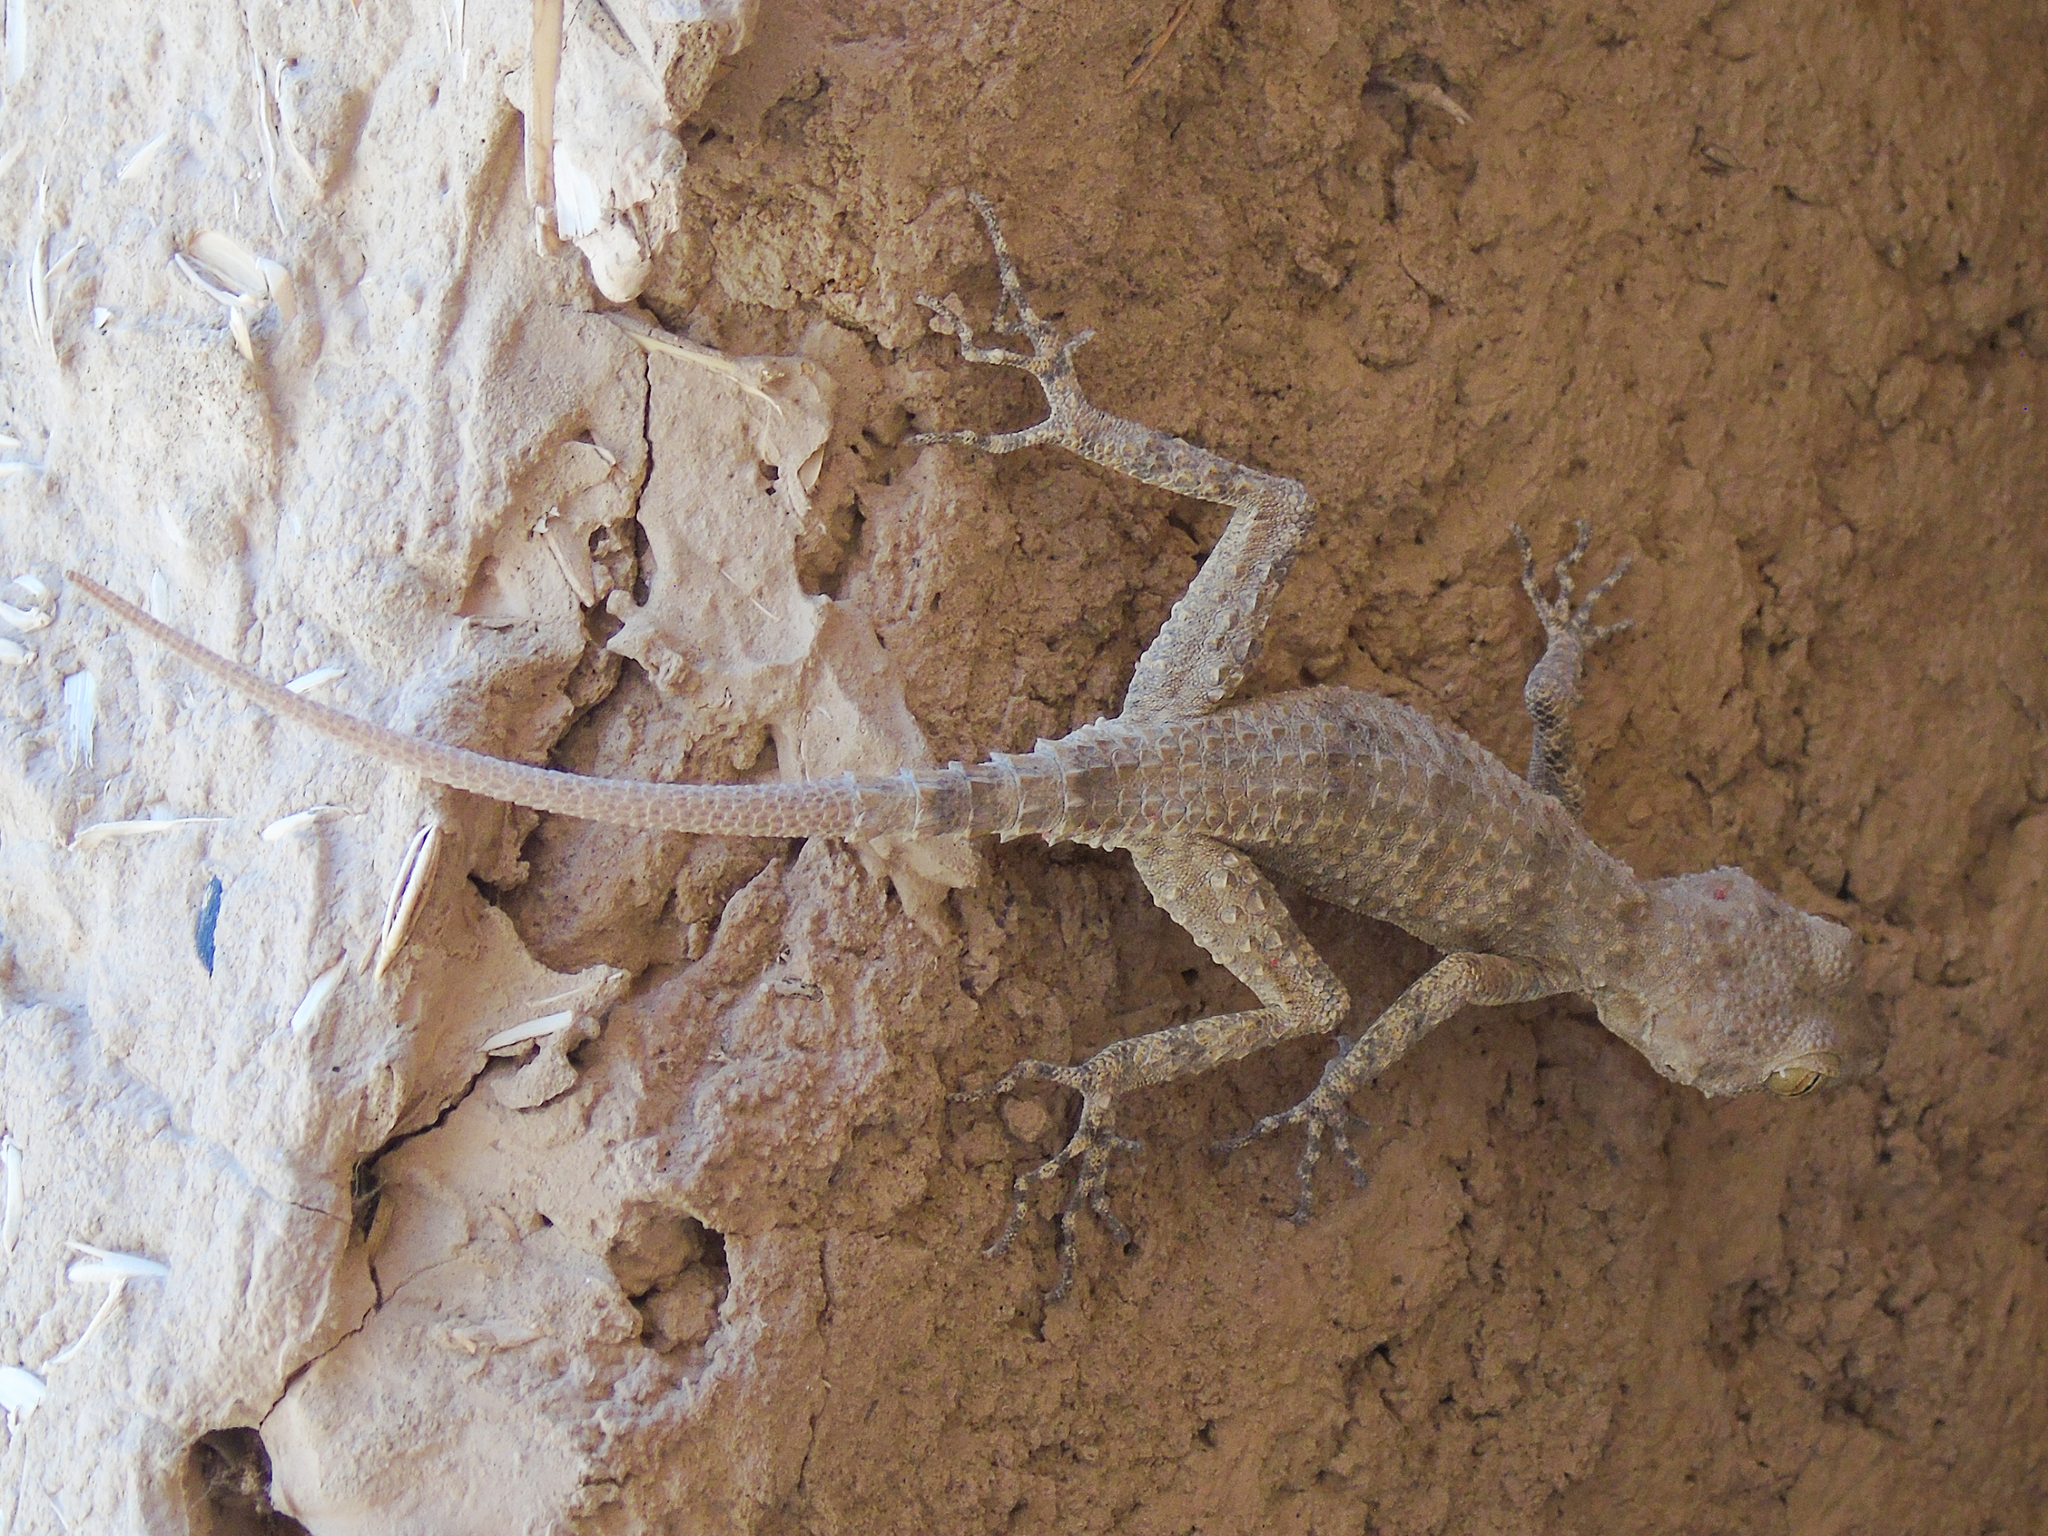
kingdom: Animalia
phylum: Chordata
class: Squamata
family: Gekkonidae
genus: Tenuidactylus
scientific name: Tenuidactylus fedtschenkoi
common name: Turkestan thin-toed gecko
